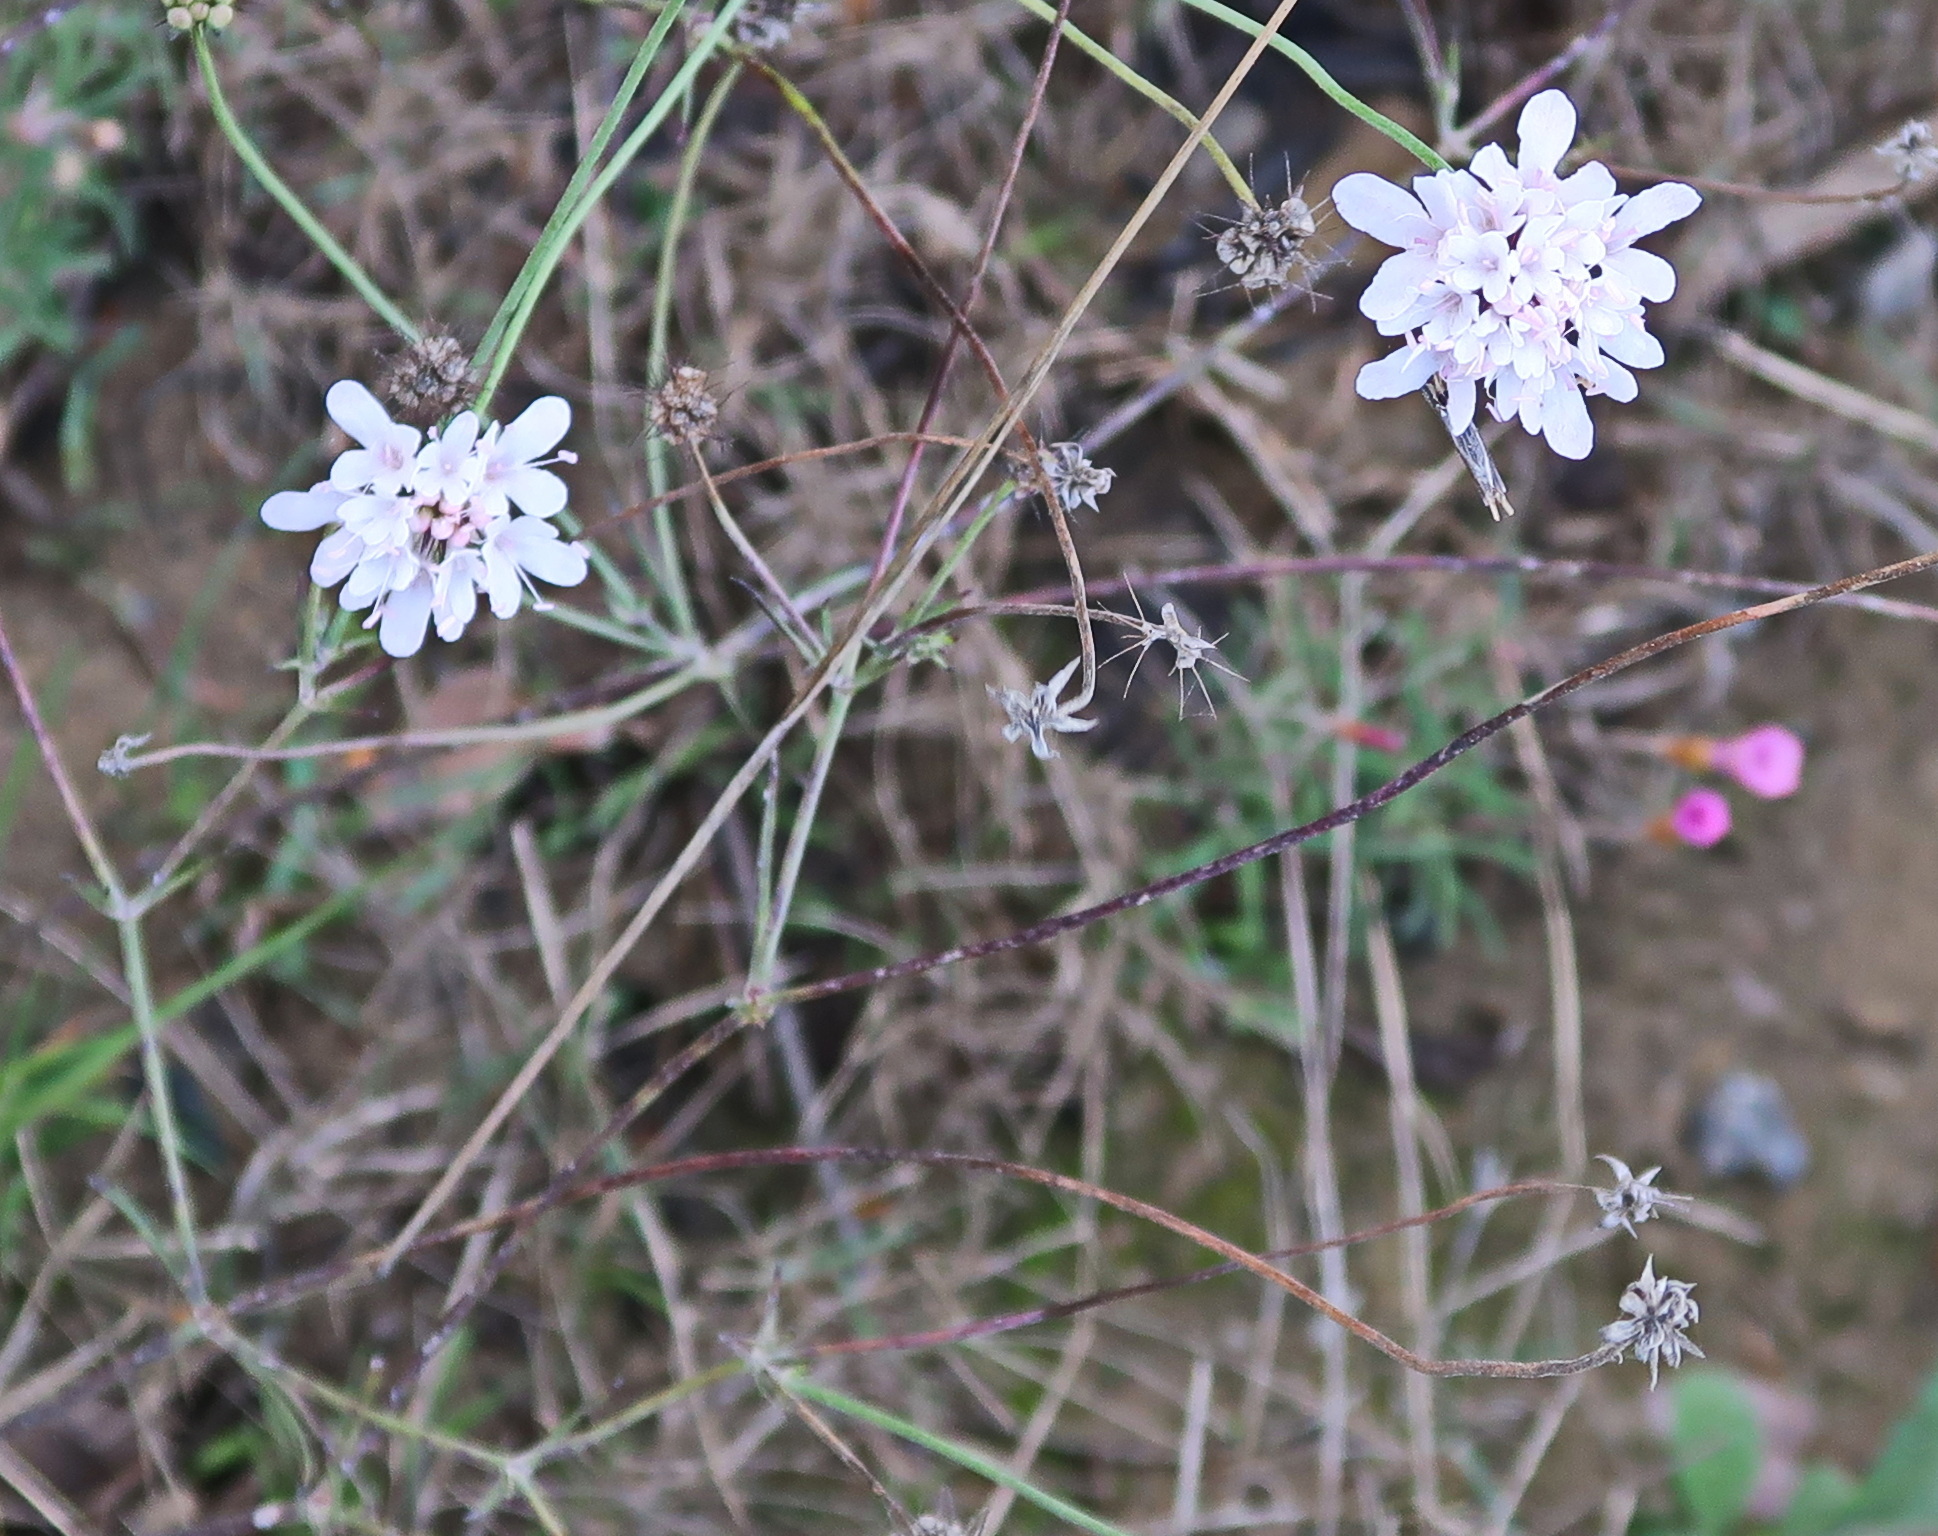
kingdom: Plantae
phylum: Tracheophyta
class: Magnoliopsida
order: Dipsacales
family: Caprifoliaceae
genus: Scabiosa
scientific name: Scabiosa columbaria
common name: Small scabious
